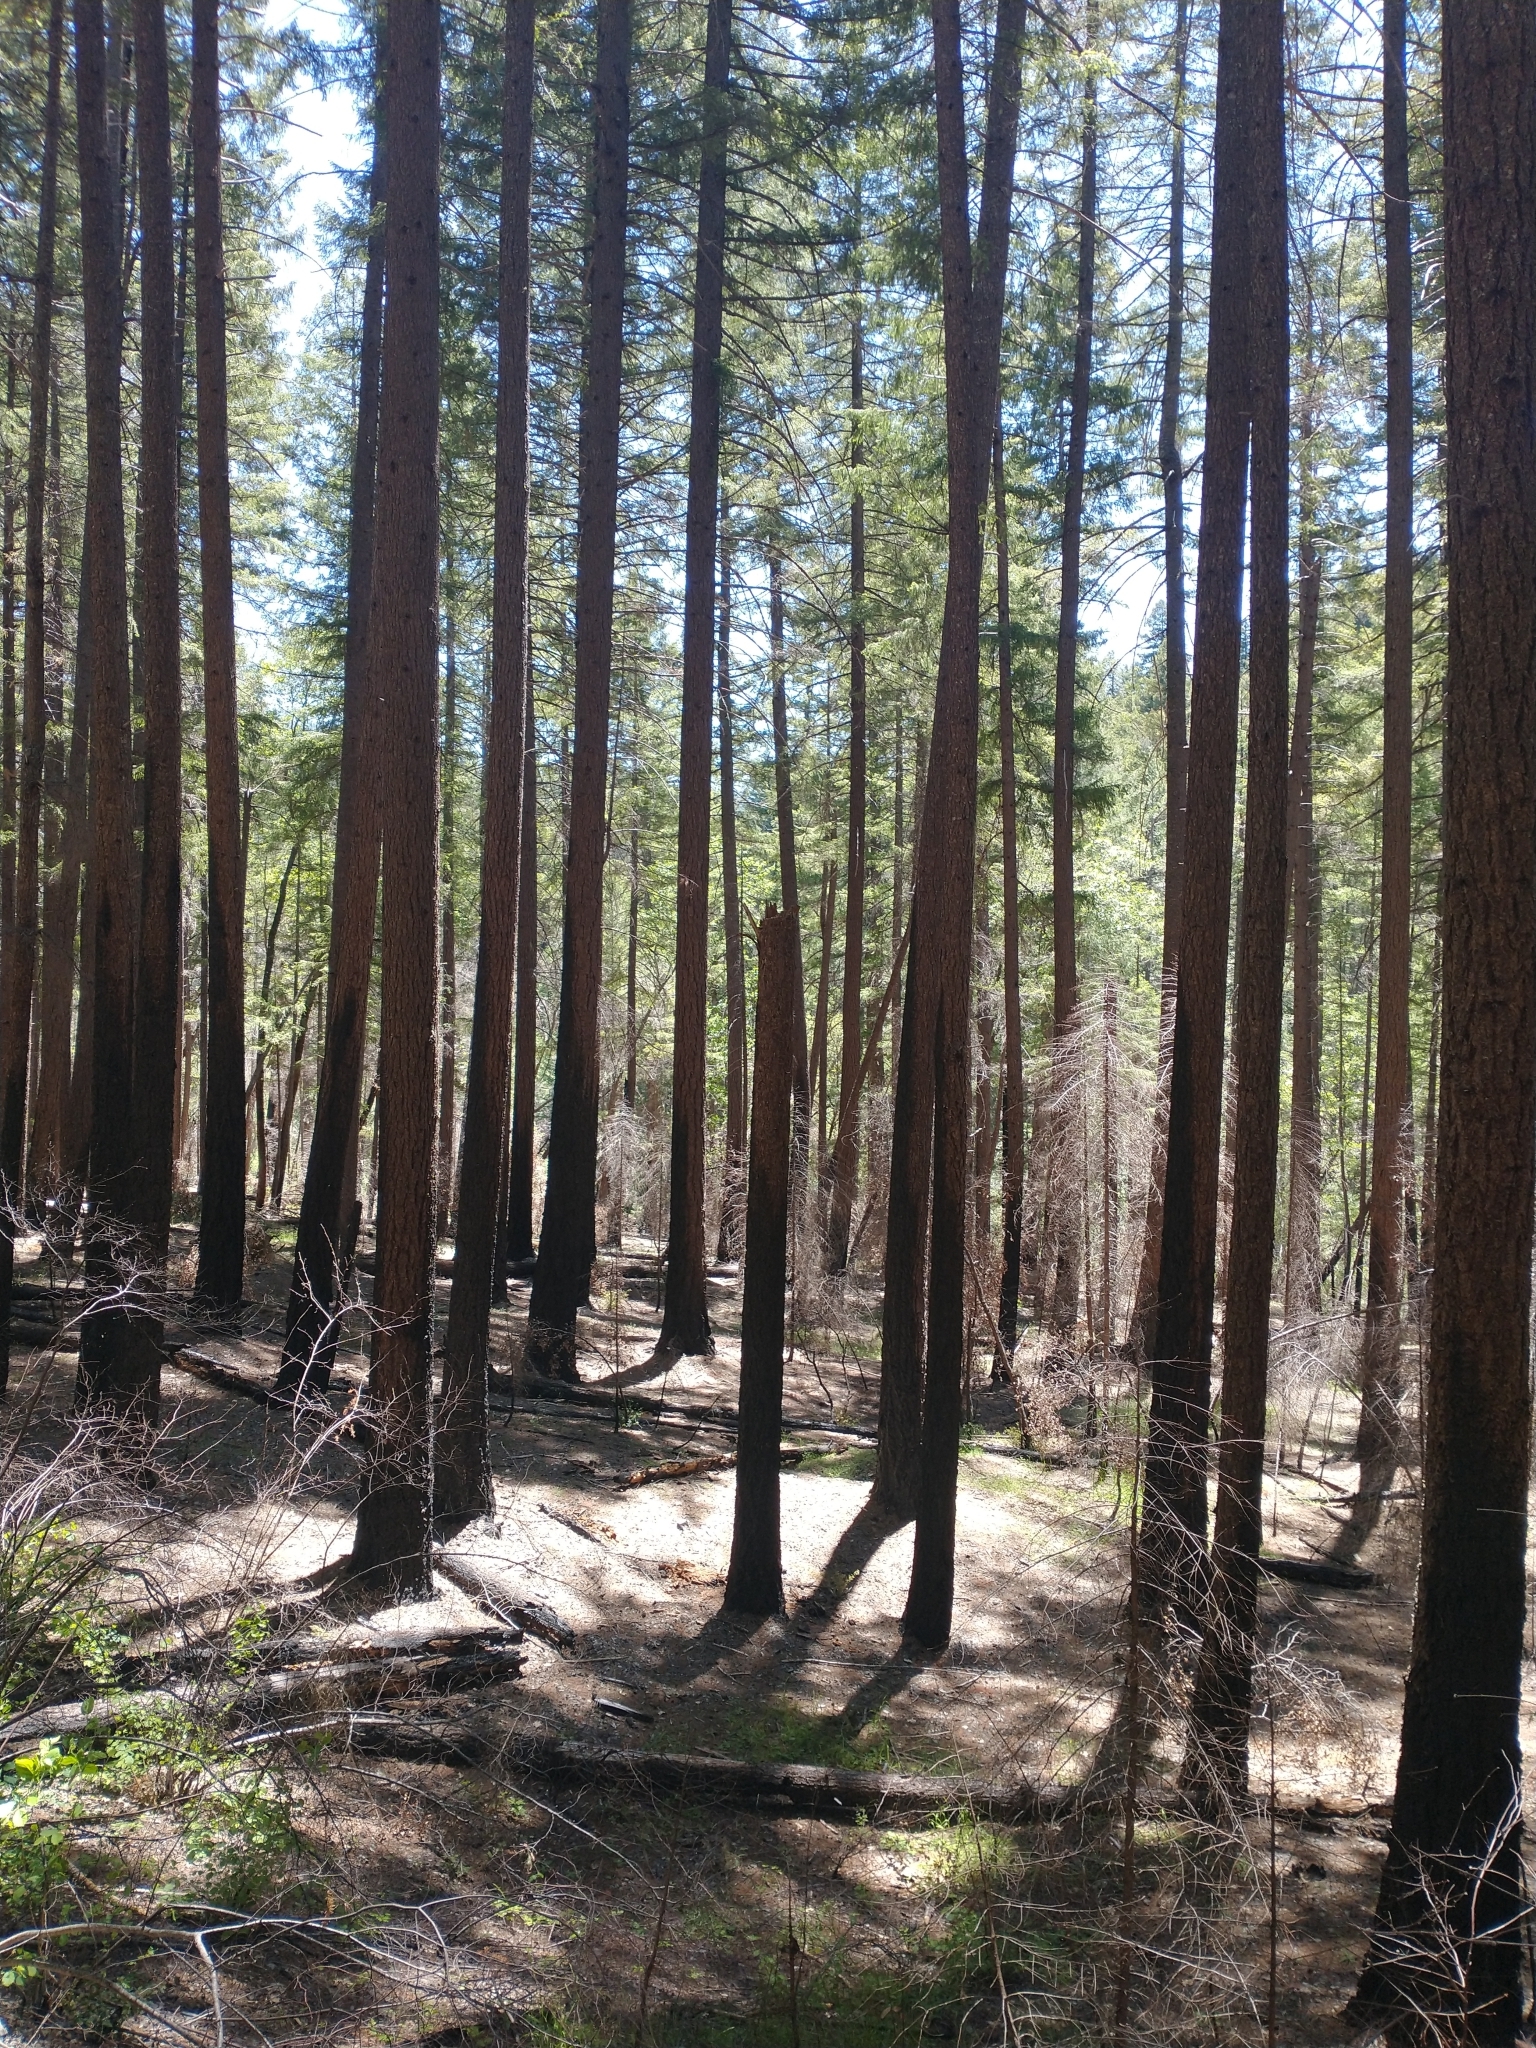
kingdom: Plantae
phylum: Tracheophyta
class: Pinopsida
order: Pinales
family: Pinaceae
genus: Pseudotsuga
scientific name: Pseudotsuga menziesii
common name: Douglas fir
